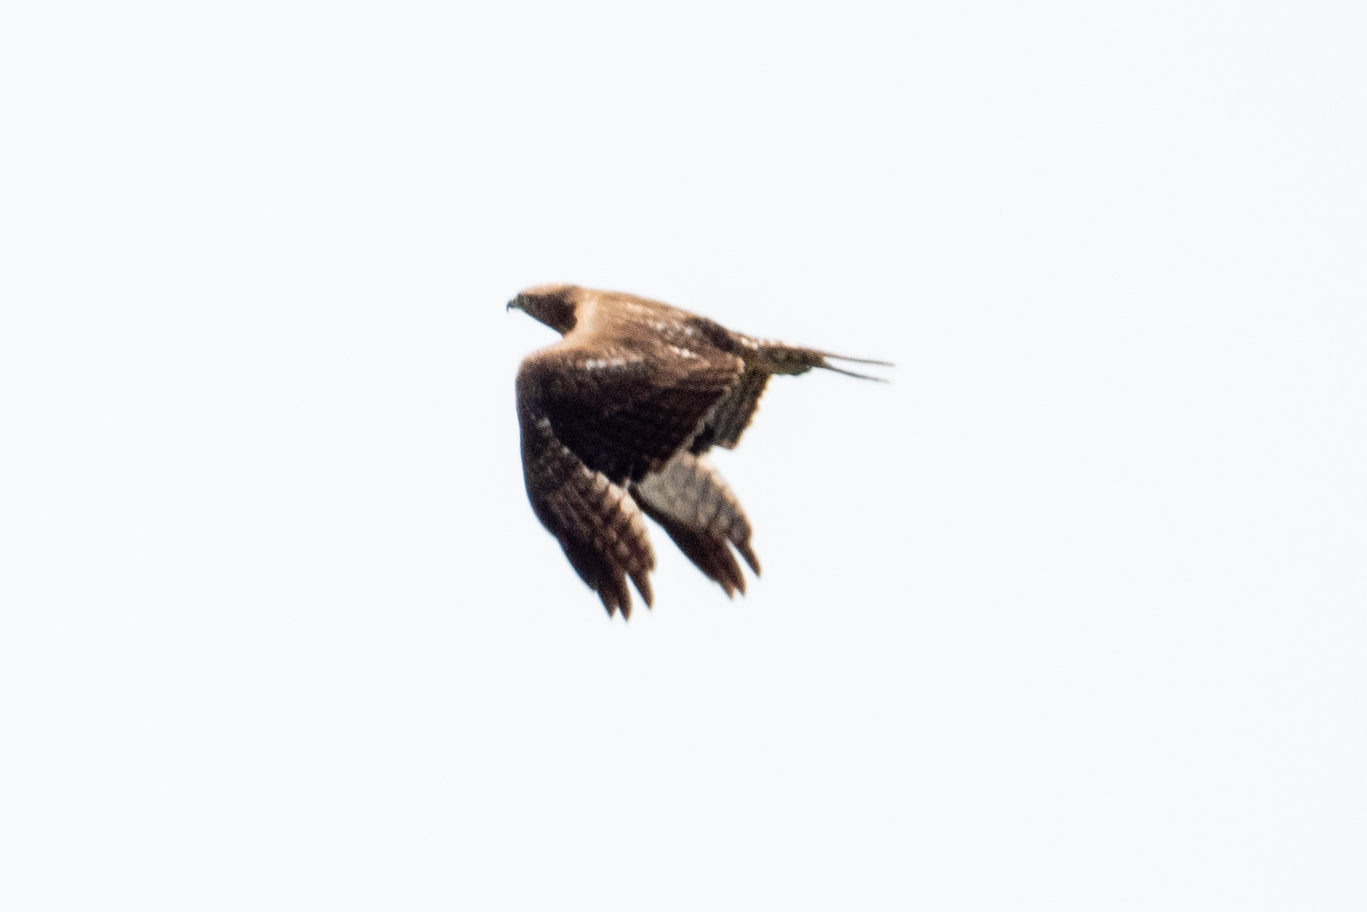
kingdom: Animalia
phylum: Chordata
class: Aves
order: Accipitriformes
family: Accipitridae
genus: Buteo
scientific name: Buteo jamaicensis
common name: Red-tailed hawk
